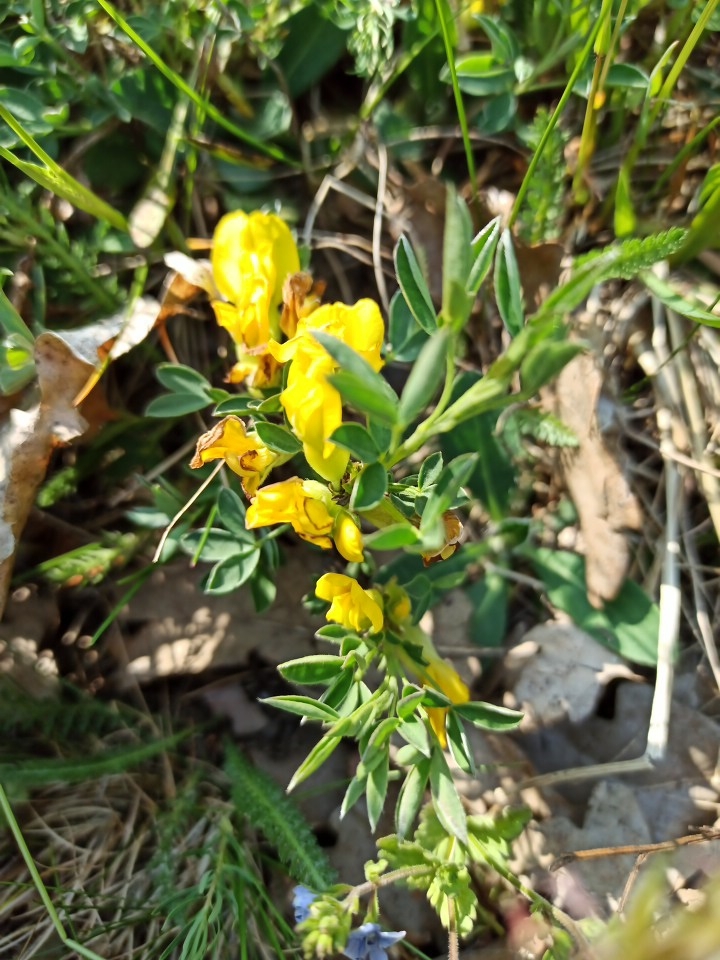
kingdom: Plantae
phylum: Tracheophyta
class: Magnoliopsida
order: Fabales
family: Fabaceae
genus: Chamaecytisus
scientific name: Chamaecytisus ratisbonensis
